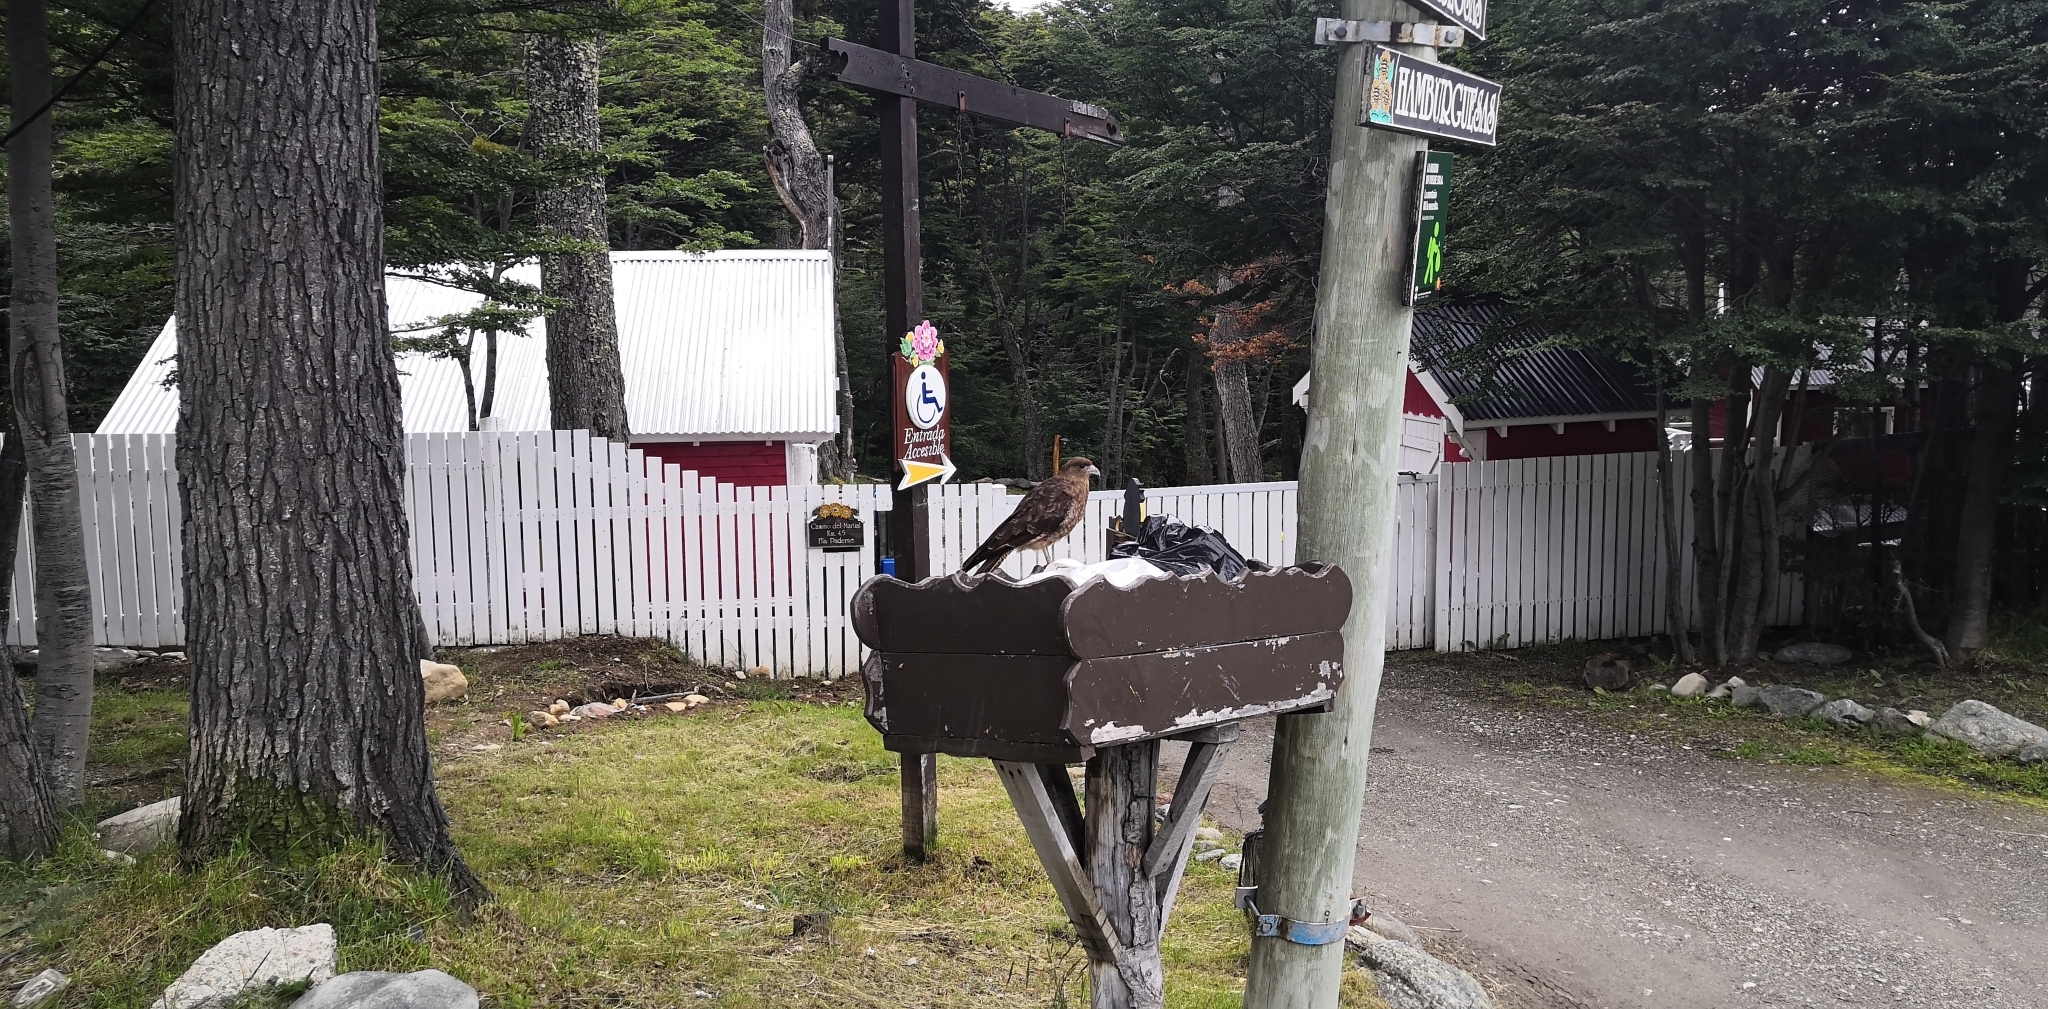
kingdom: Animalia
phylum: Chordata
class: Aves
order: Falconiformes
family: Falconidae
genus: Daptrius
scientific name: Daptrius
